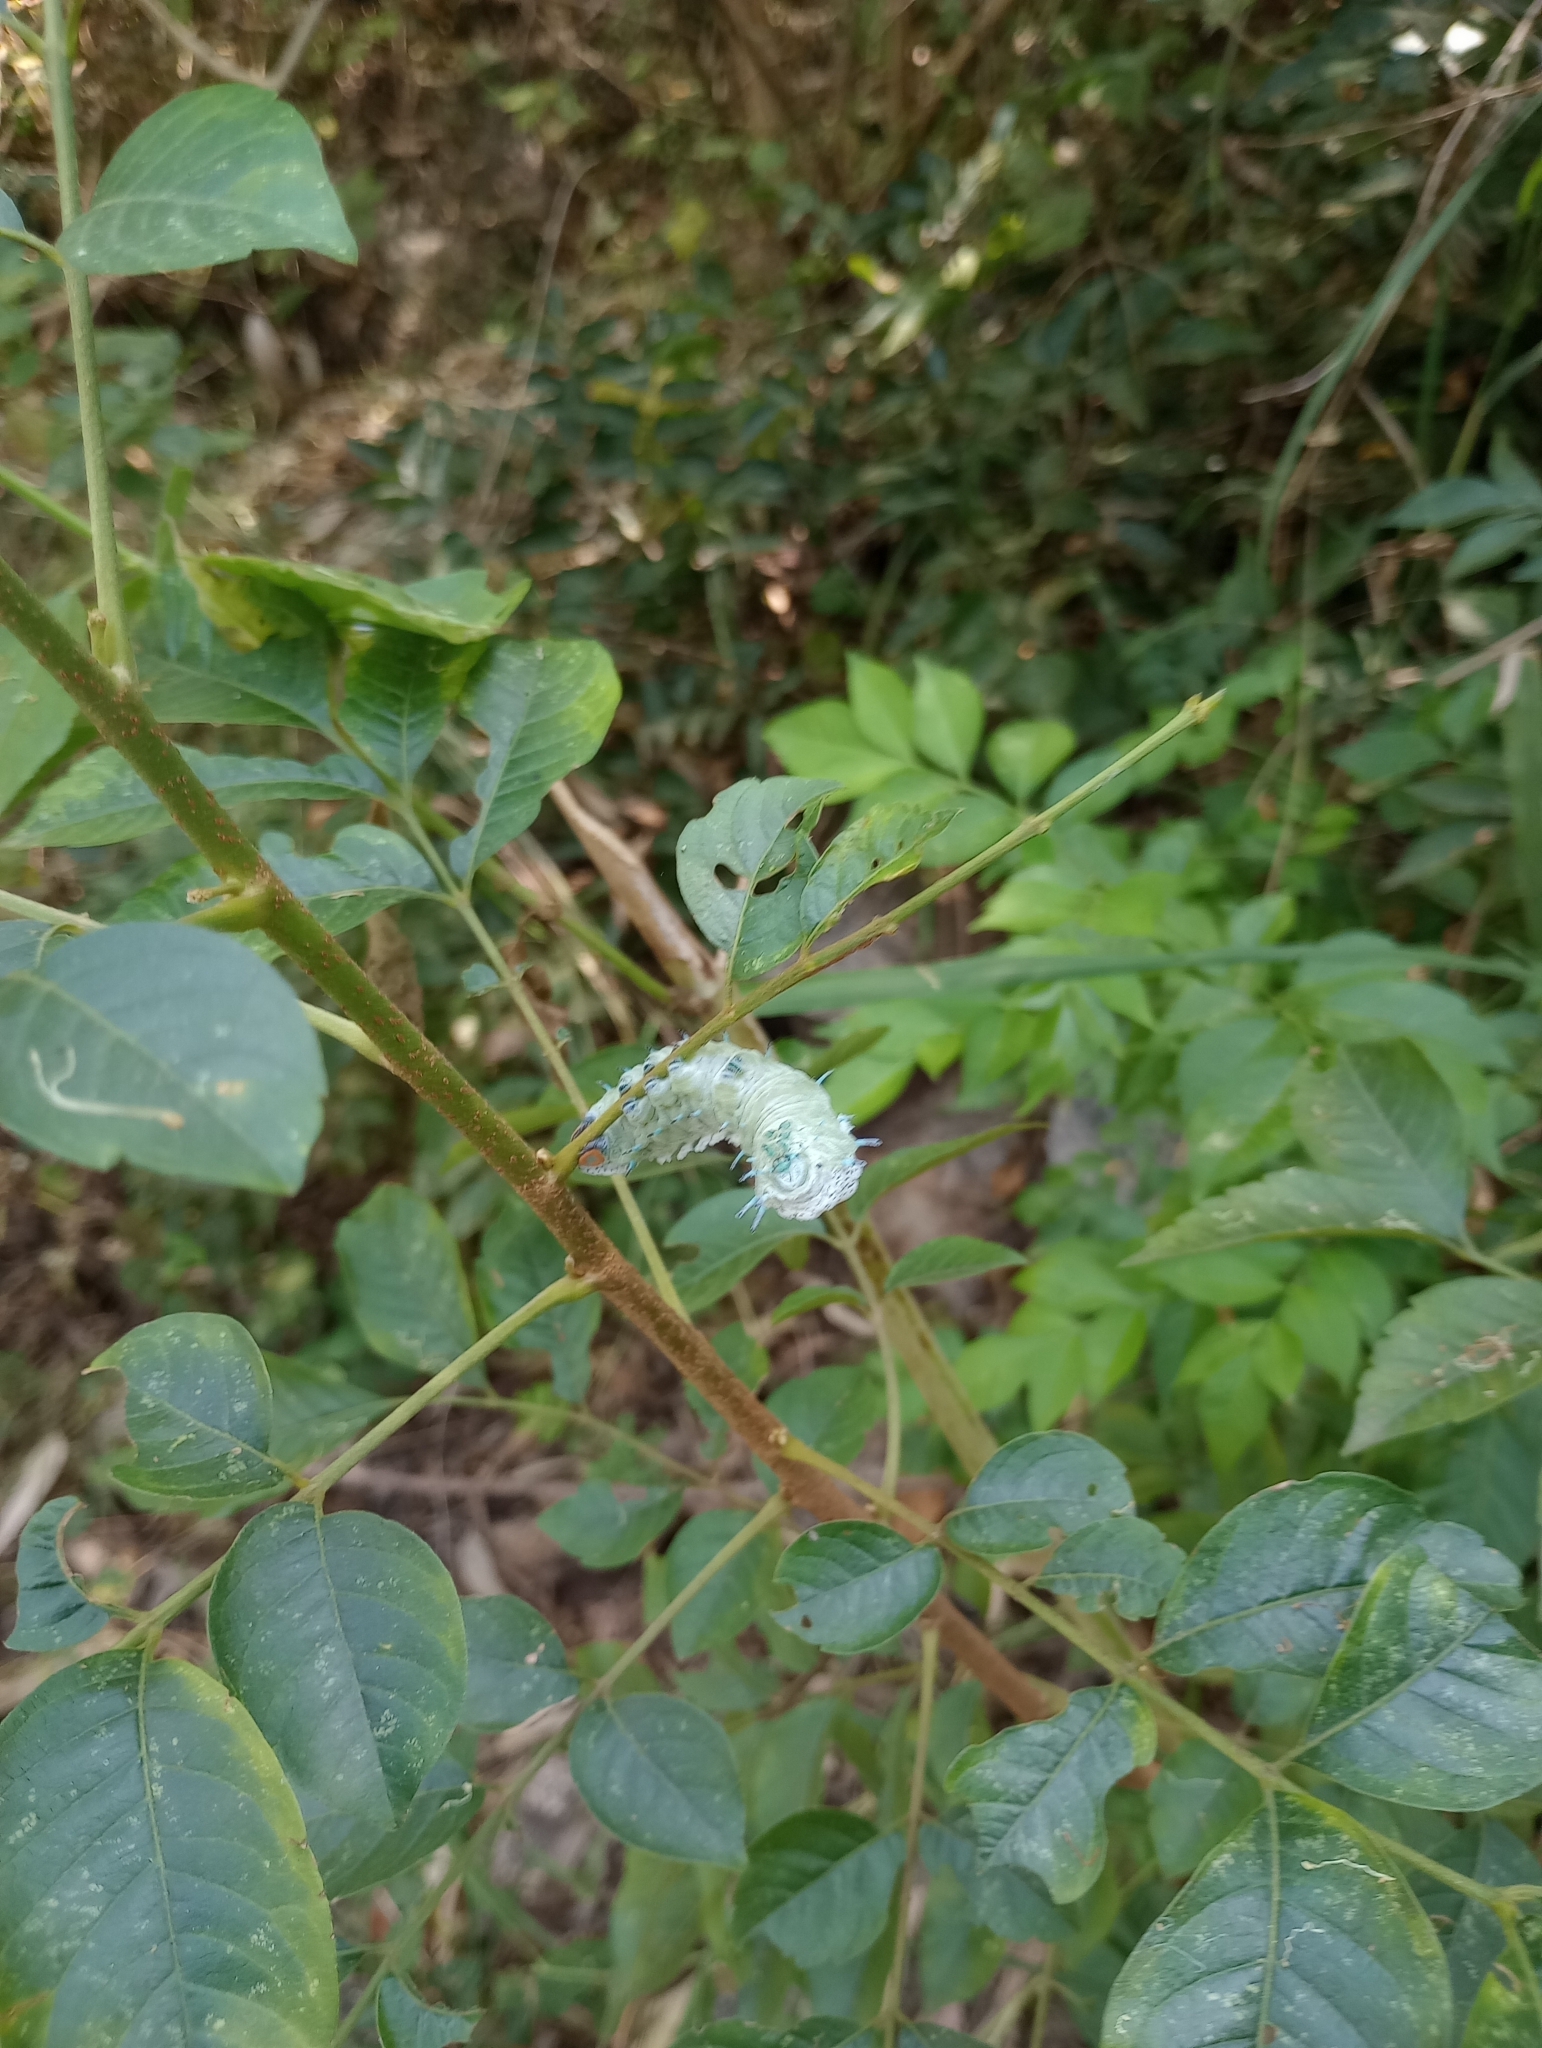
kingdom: Plantae
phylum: Tracheophyta
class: Magnoliopsida
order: Sapindales
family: Meliaceae
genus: Cipadessa
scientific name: Cipadessa baccifera
